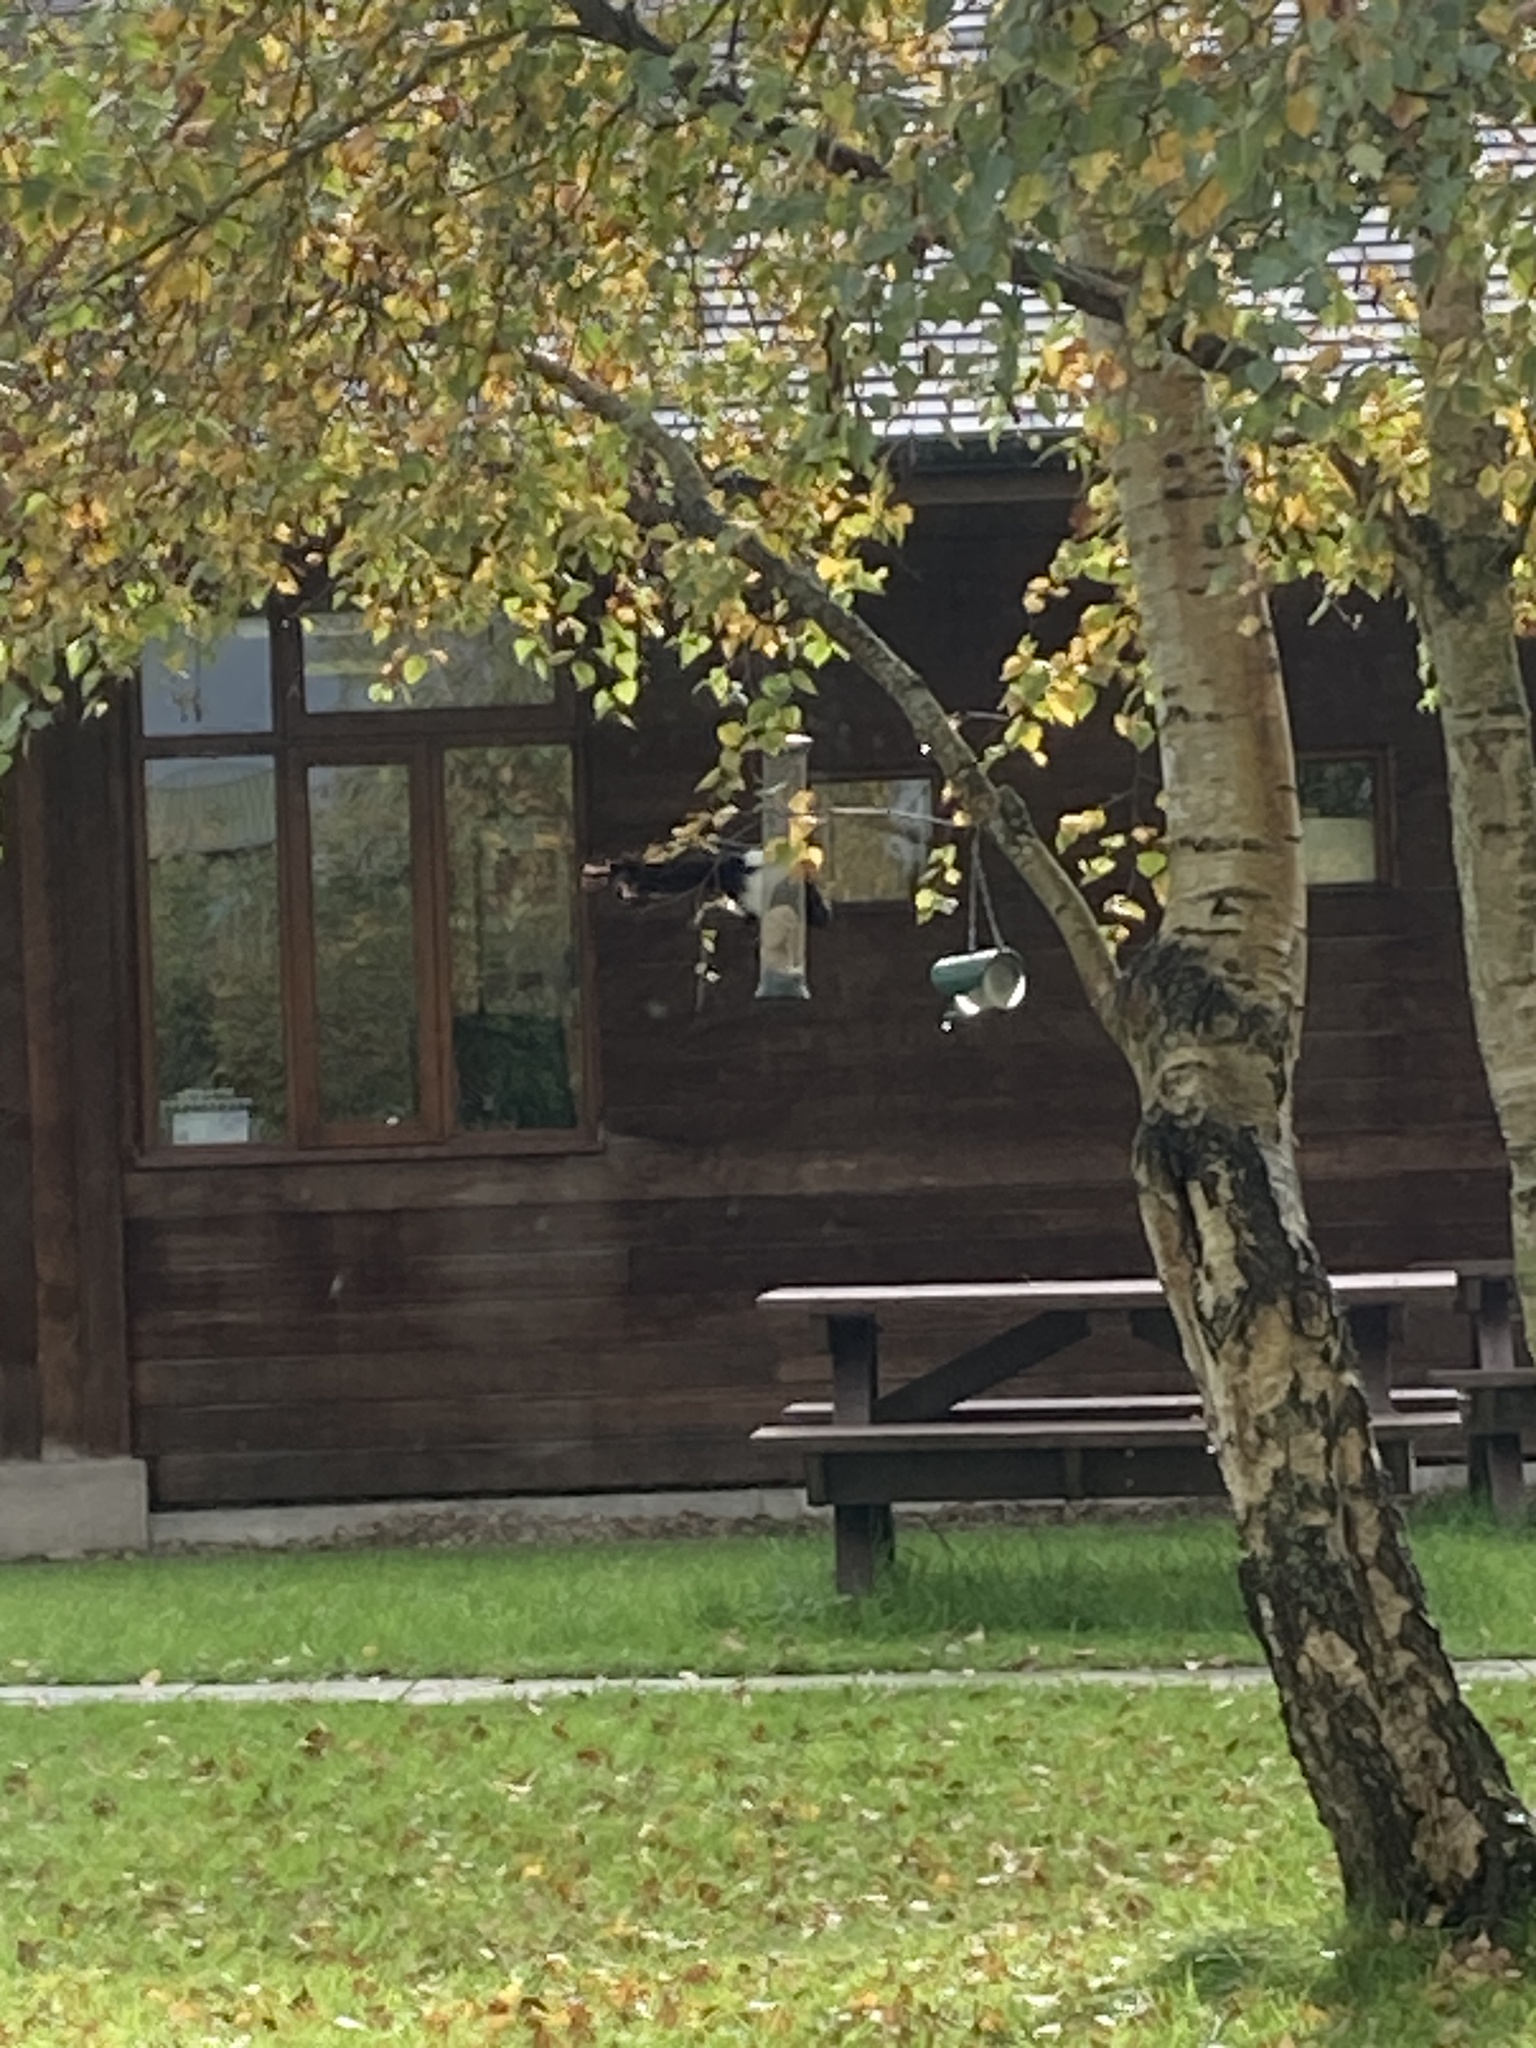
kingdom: Animalia
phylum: Chordata
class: Aves
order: Passeriformes
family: Corvidae
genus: Pica
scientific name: Pica pica
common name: Eurasian magpie
